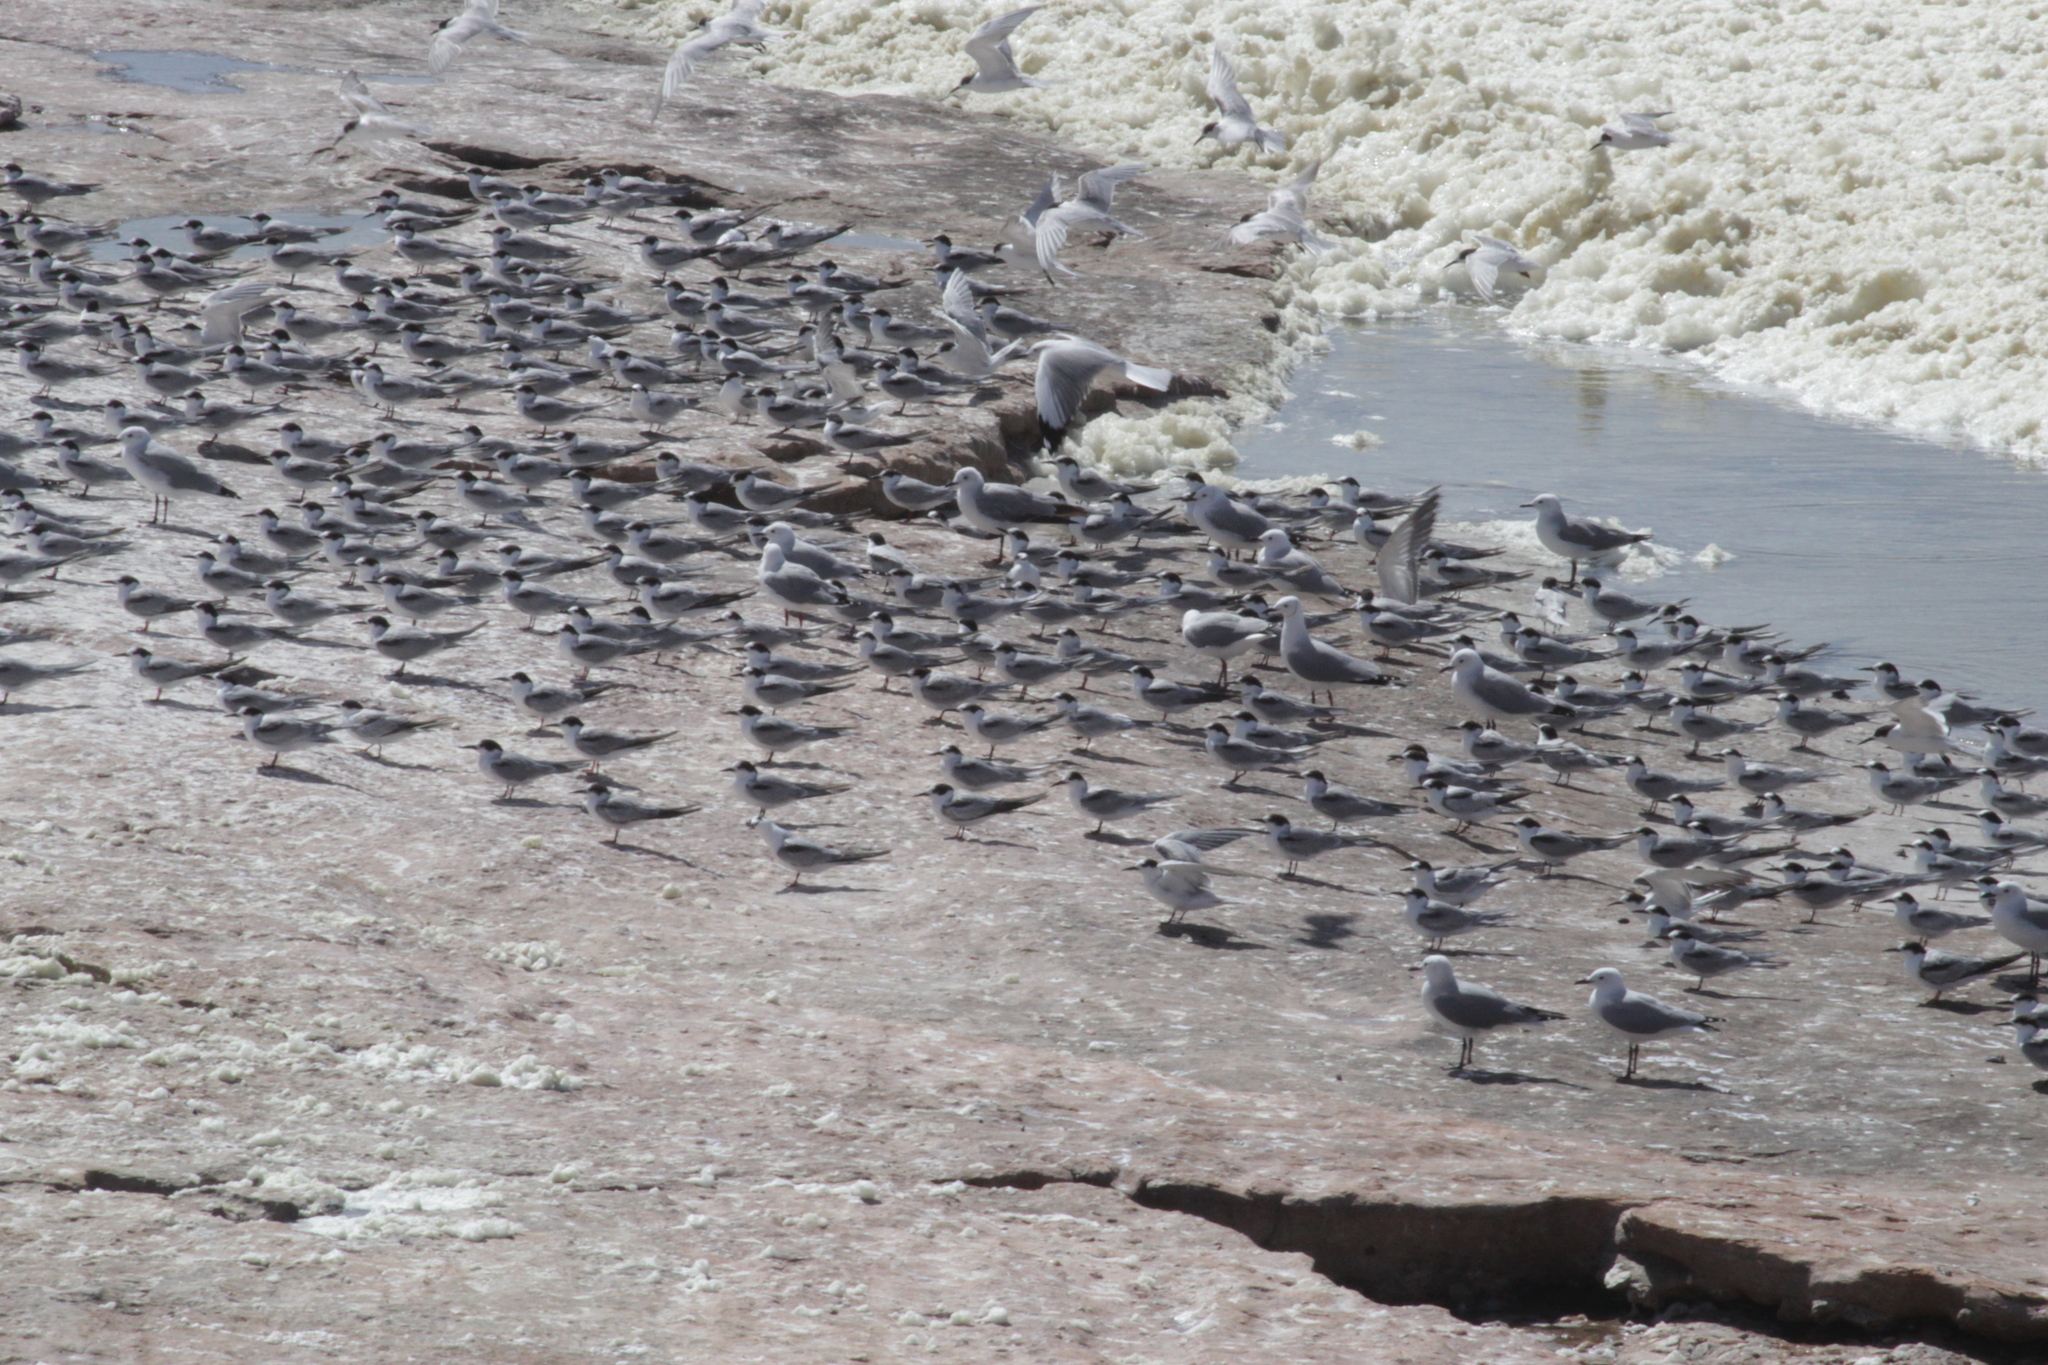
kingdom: Animalia
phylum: Chordata
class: Aves
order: Charadriiformes
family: Laridae
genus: Thalasseus
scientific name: Thalasseus sandvicensis
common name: Sandwich tern
